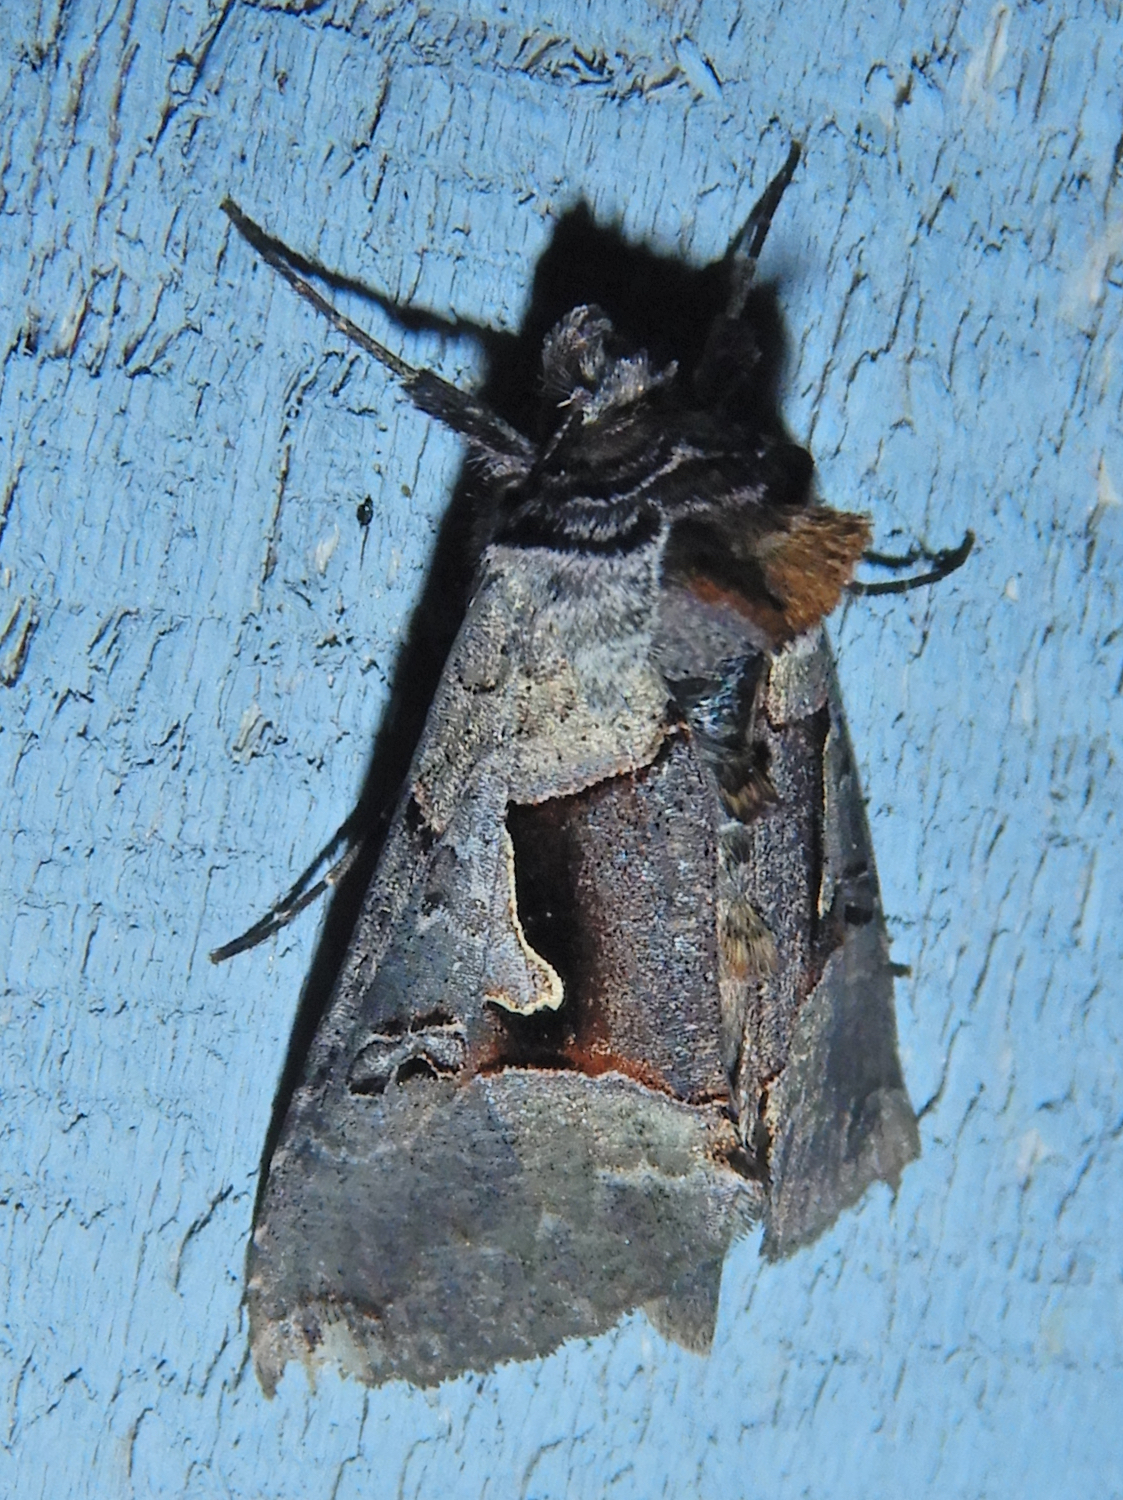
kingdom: Animalia
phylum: Arthropoda
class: Insecta
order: Lepidoptera
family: Noctuidae
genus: Autographa
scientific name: Autographa ampla
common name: Large looper moth
